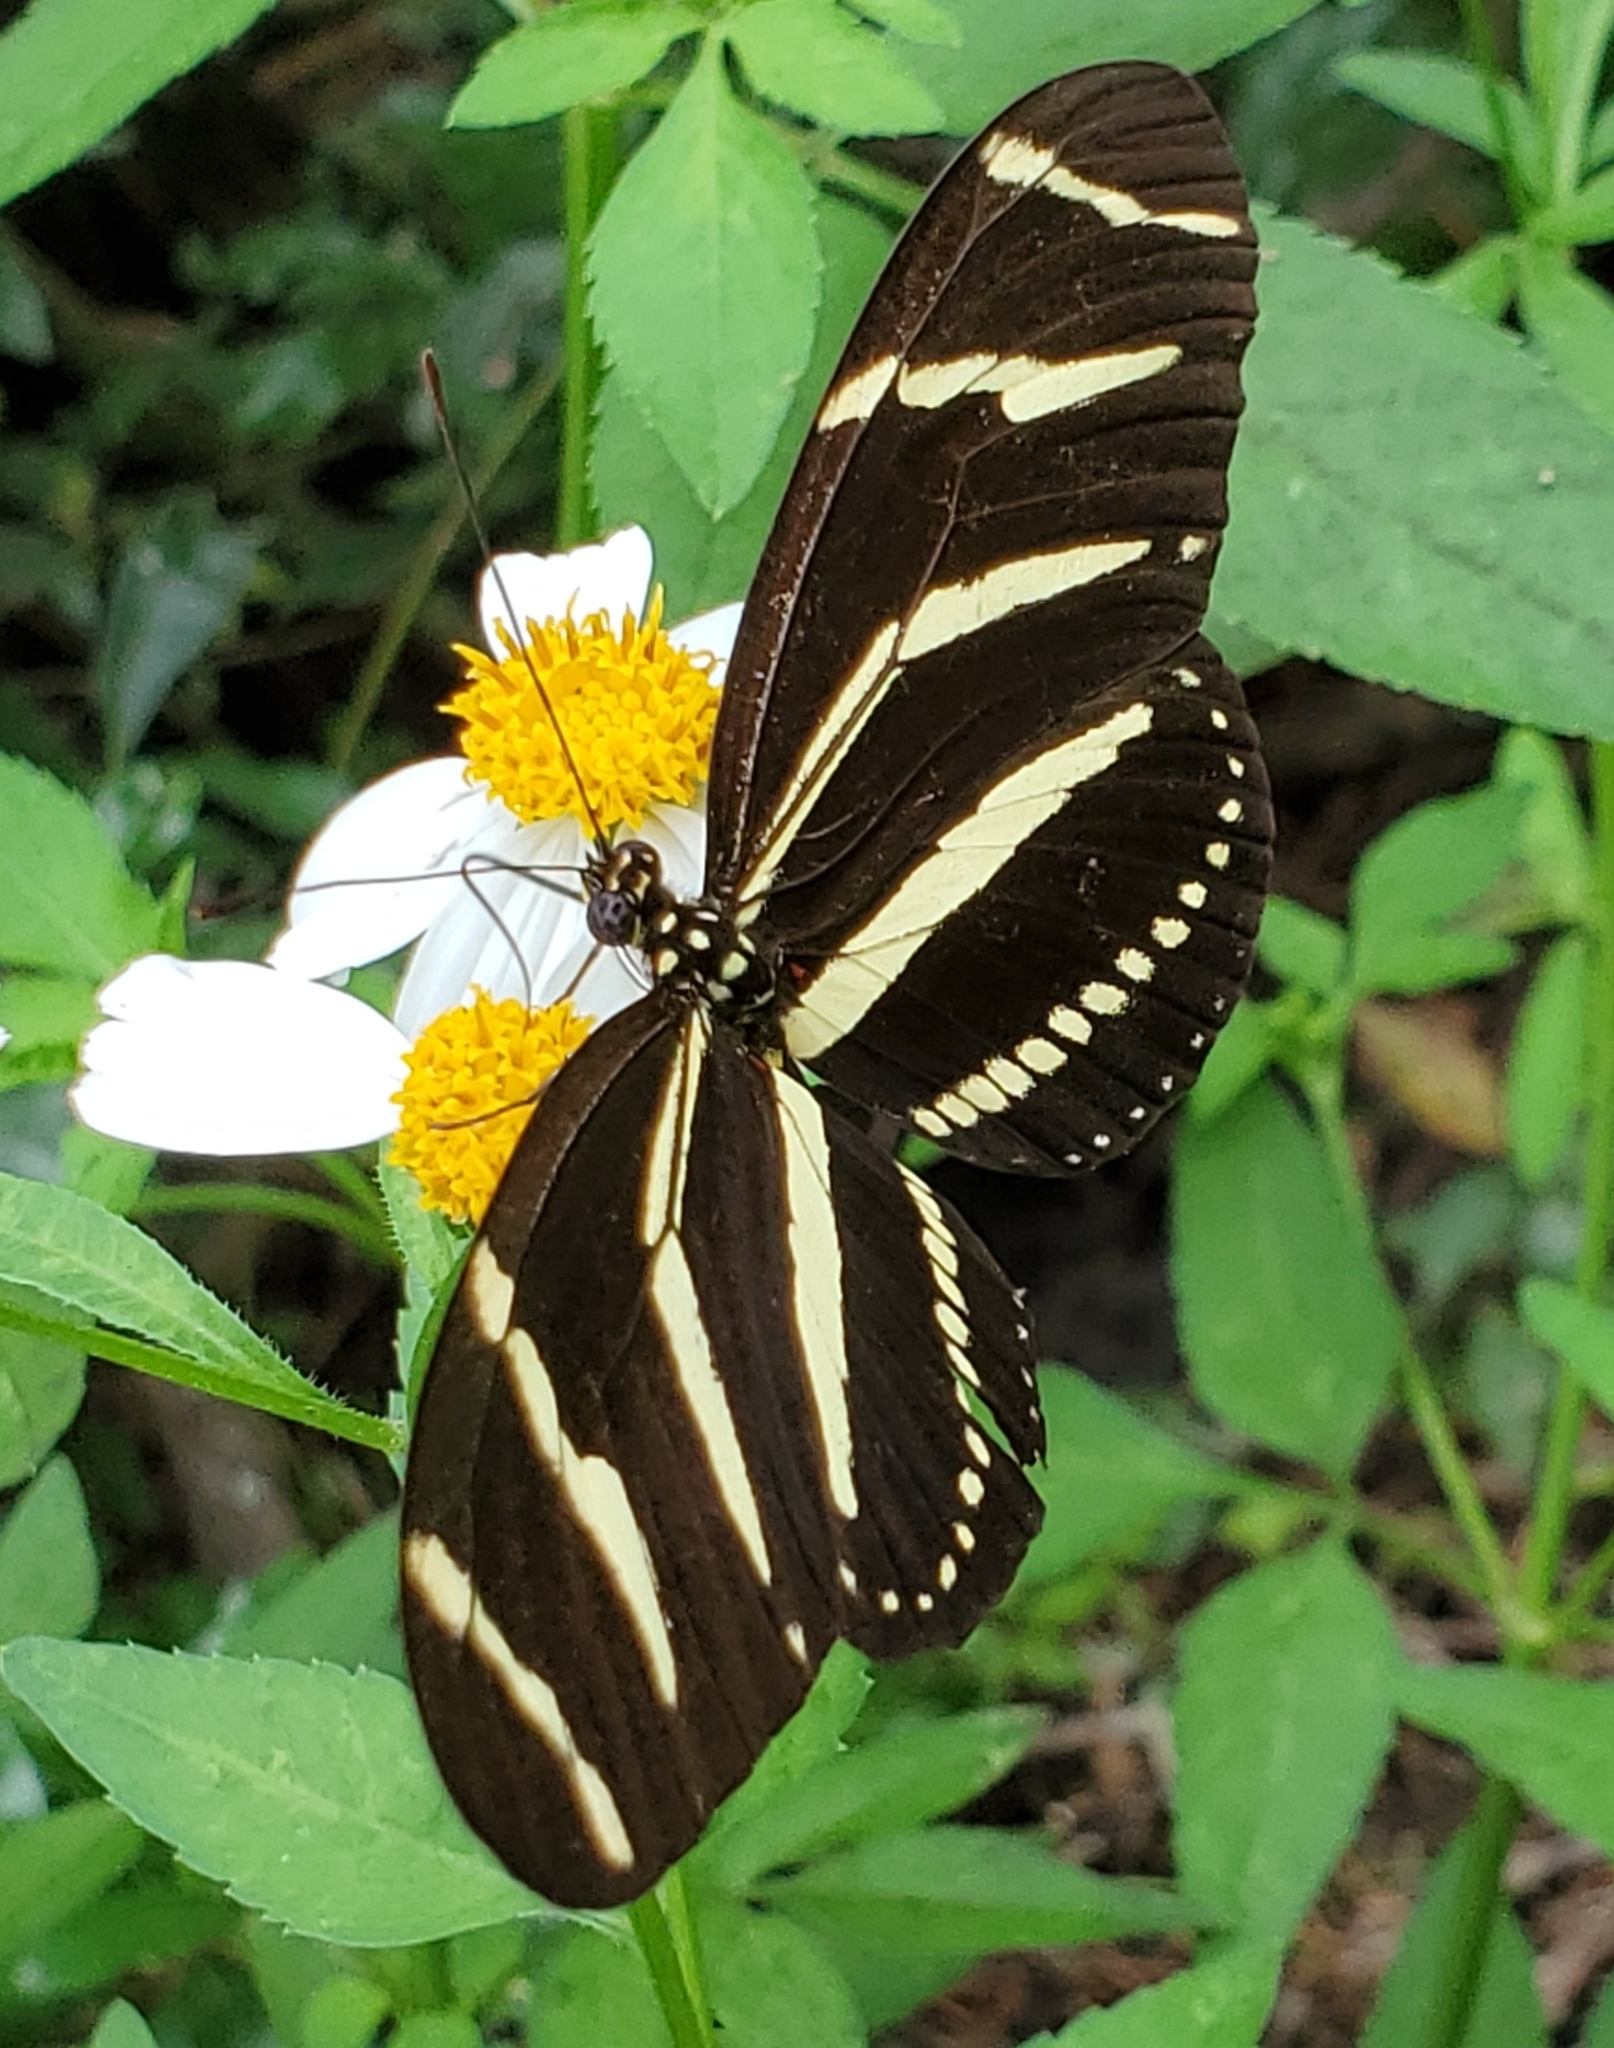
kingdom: Animalia
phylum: Arthropoda
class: Insecta
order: Lepidoptera
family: Nymphalidae
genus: Heliconius
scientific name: Heliconius charithonia
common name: Zebra long wing
